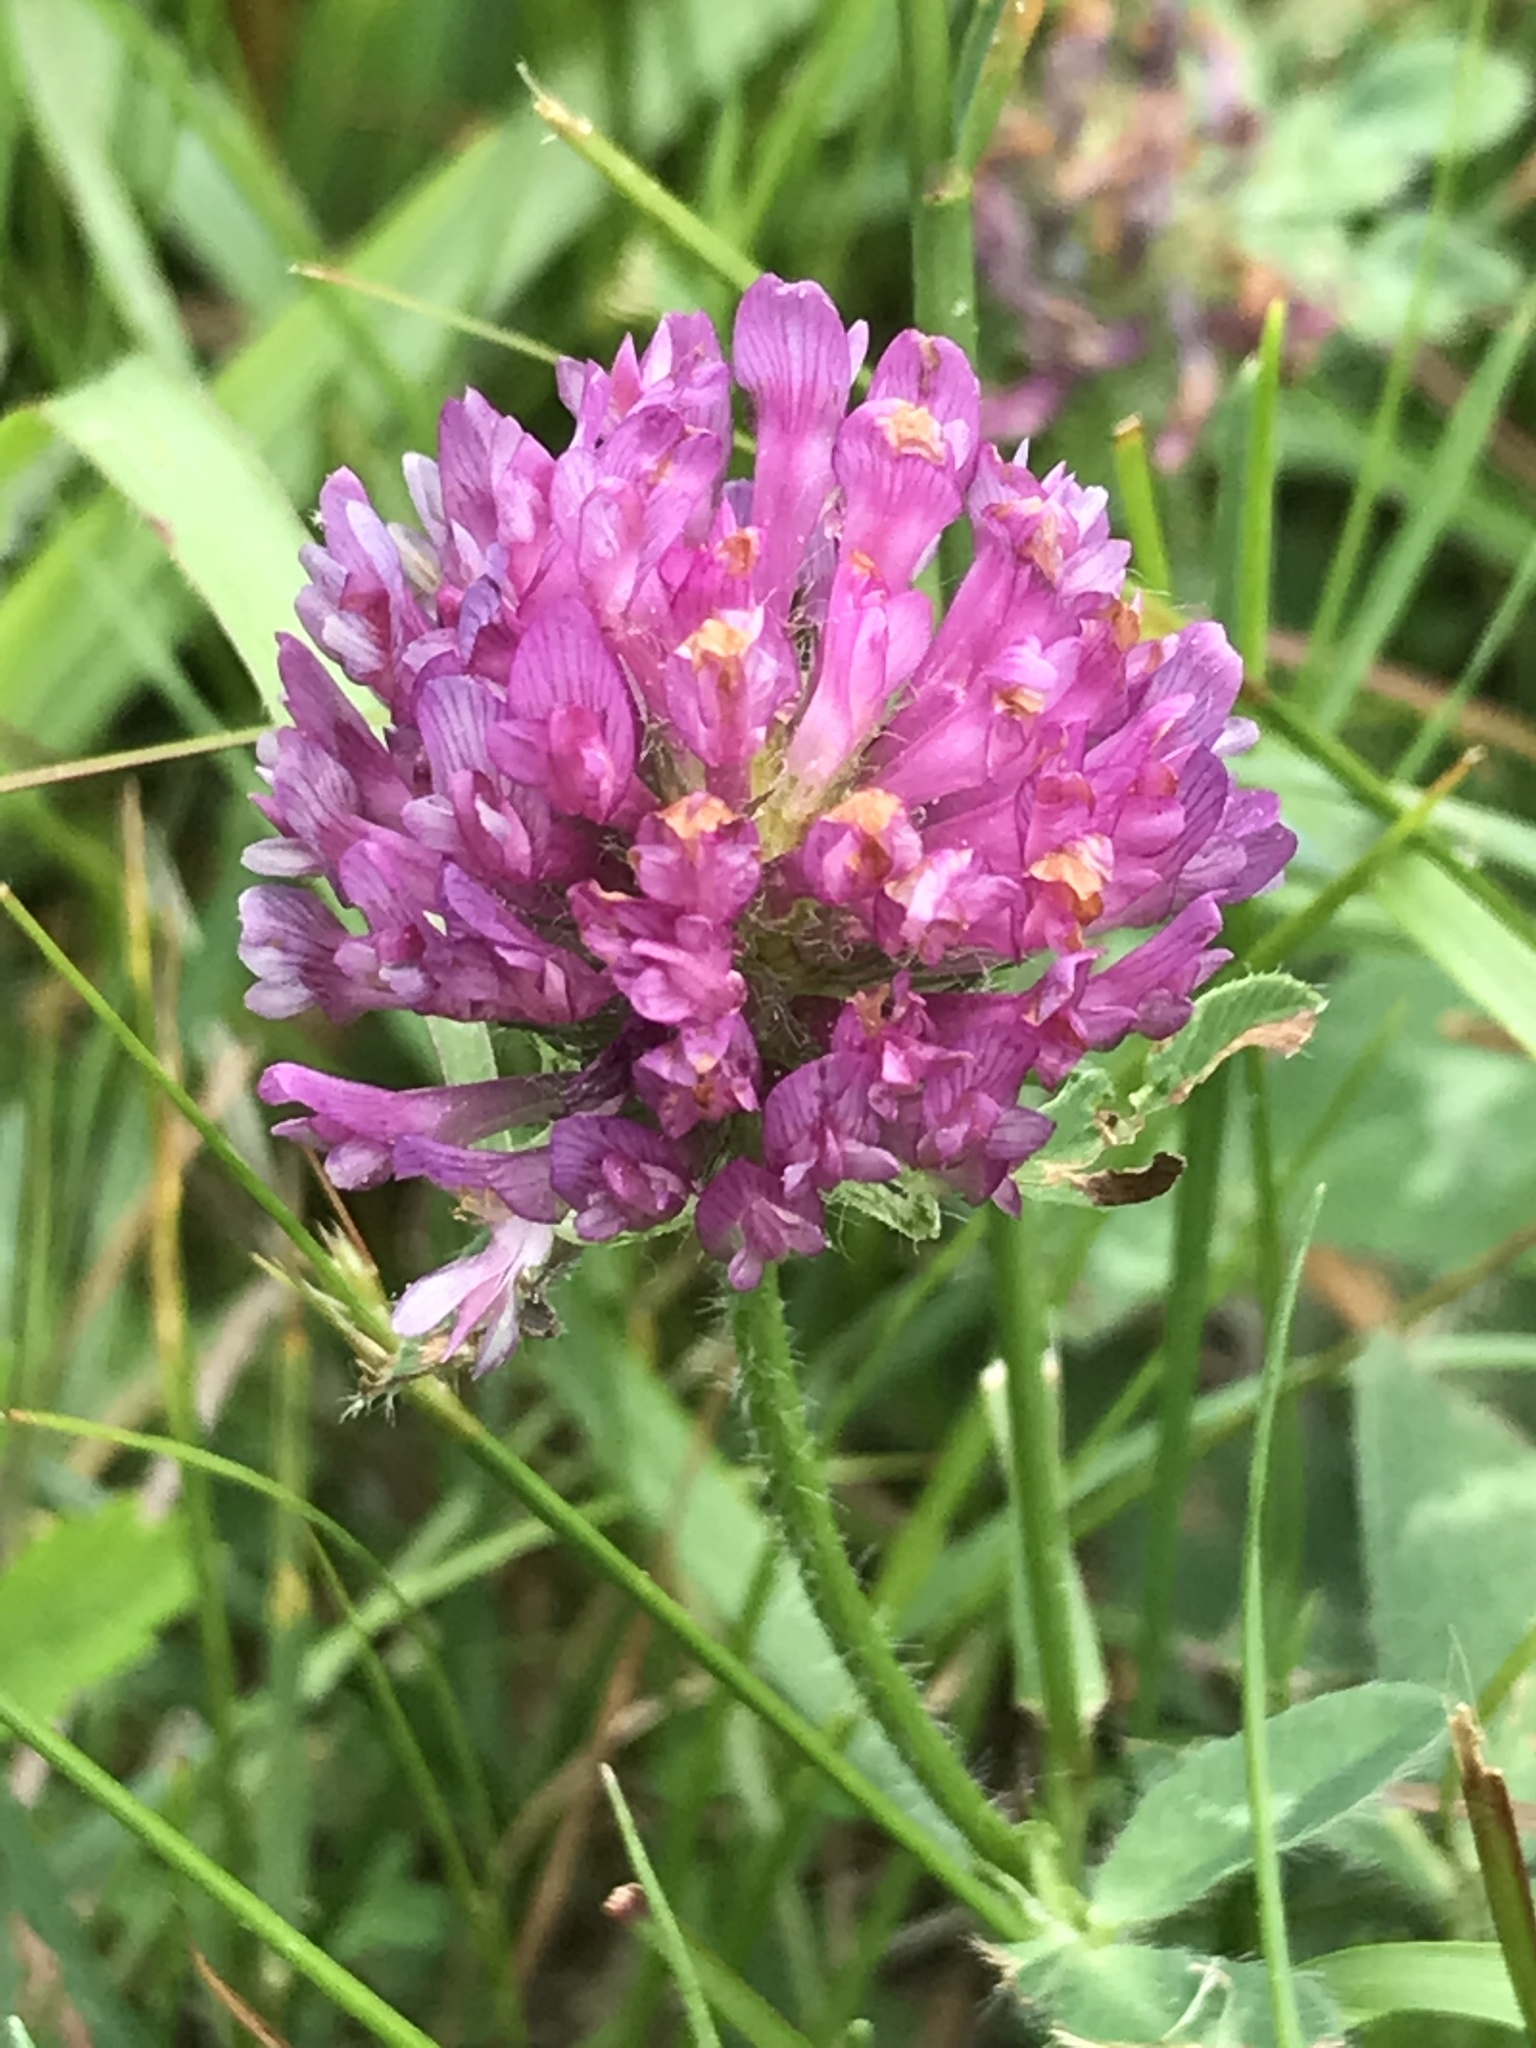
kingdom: Plantae
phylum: Tracheophyta
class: Magnoliopsida
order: Fabales
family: Fabaceae
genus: Trifolium
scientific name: Trifolium pratense
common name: Red clover
